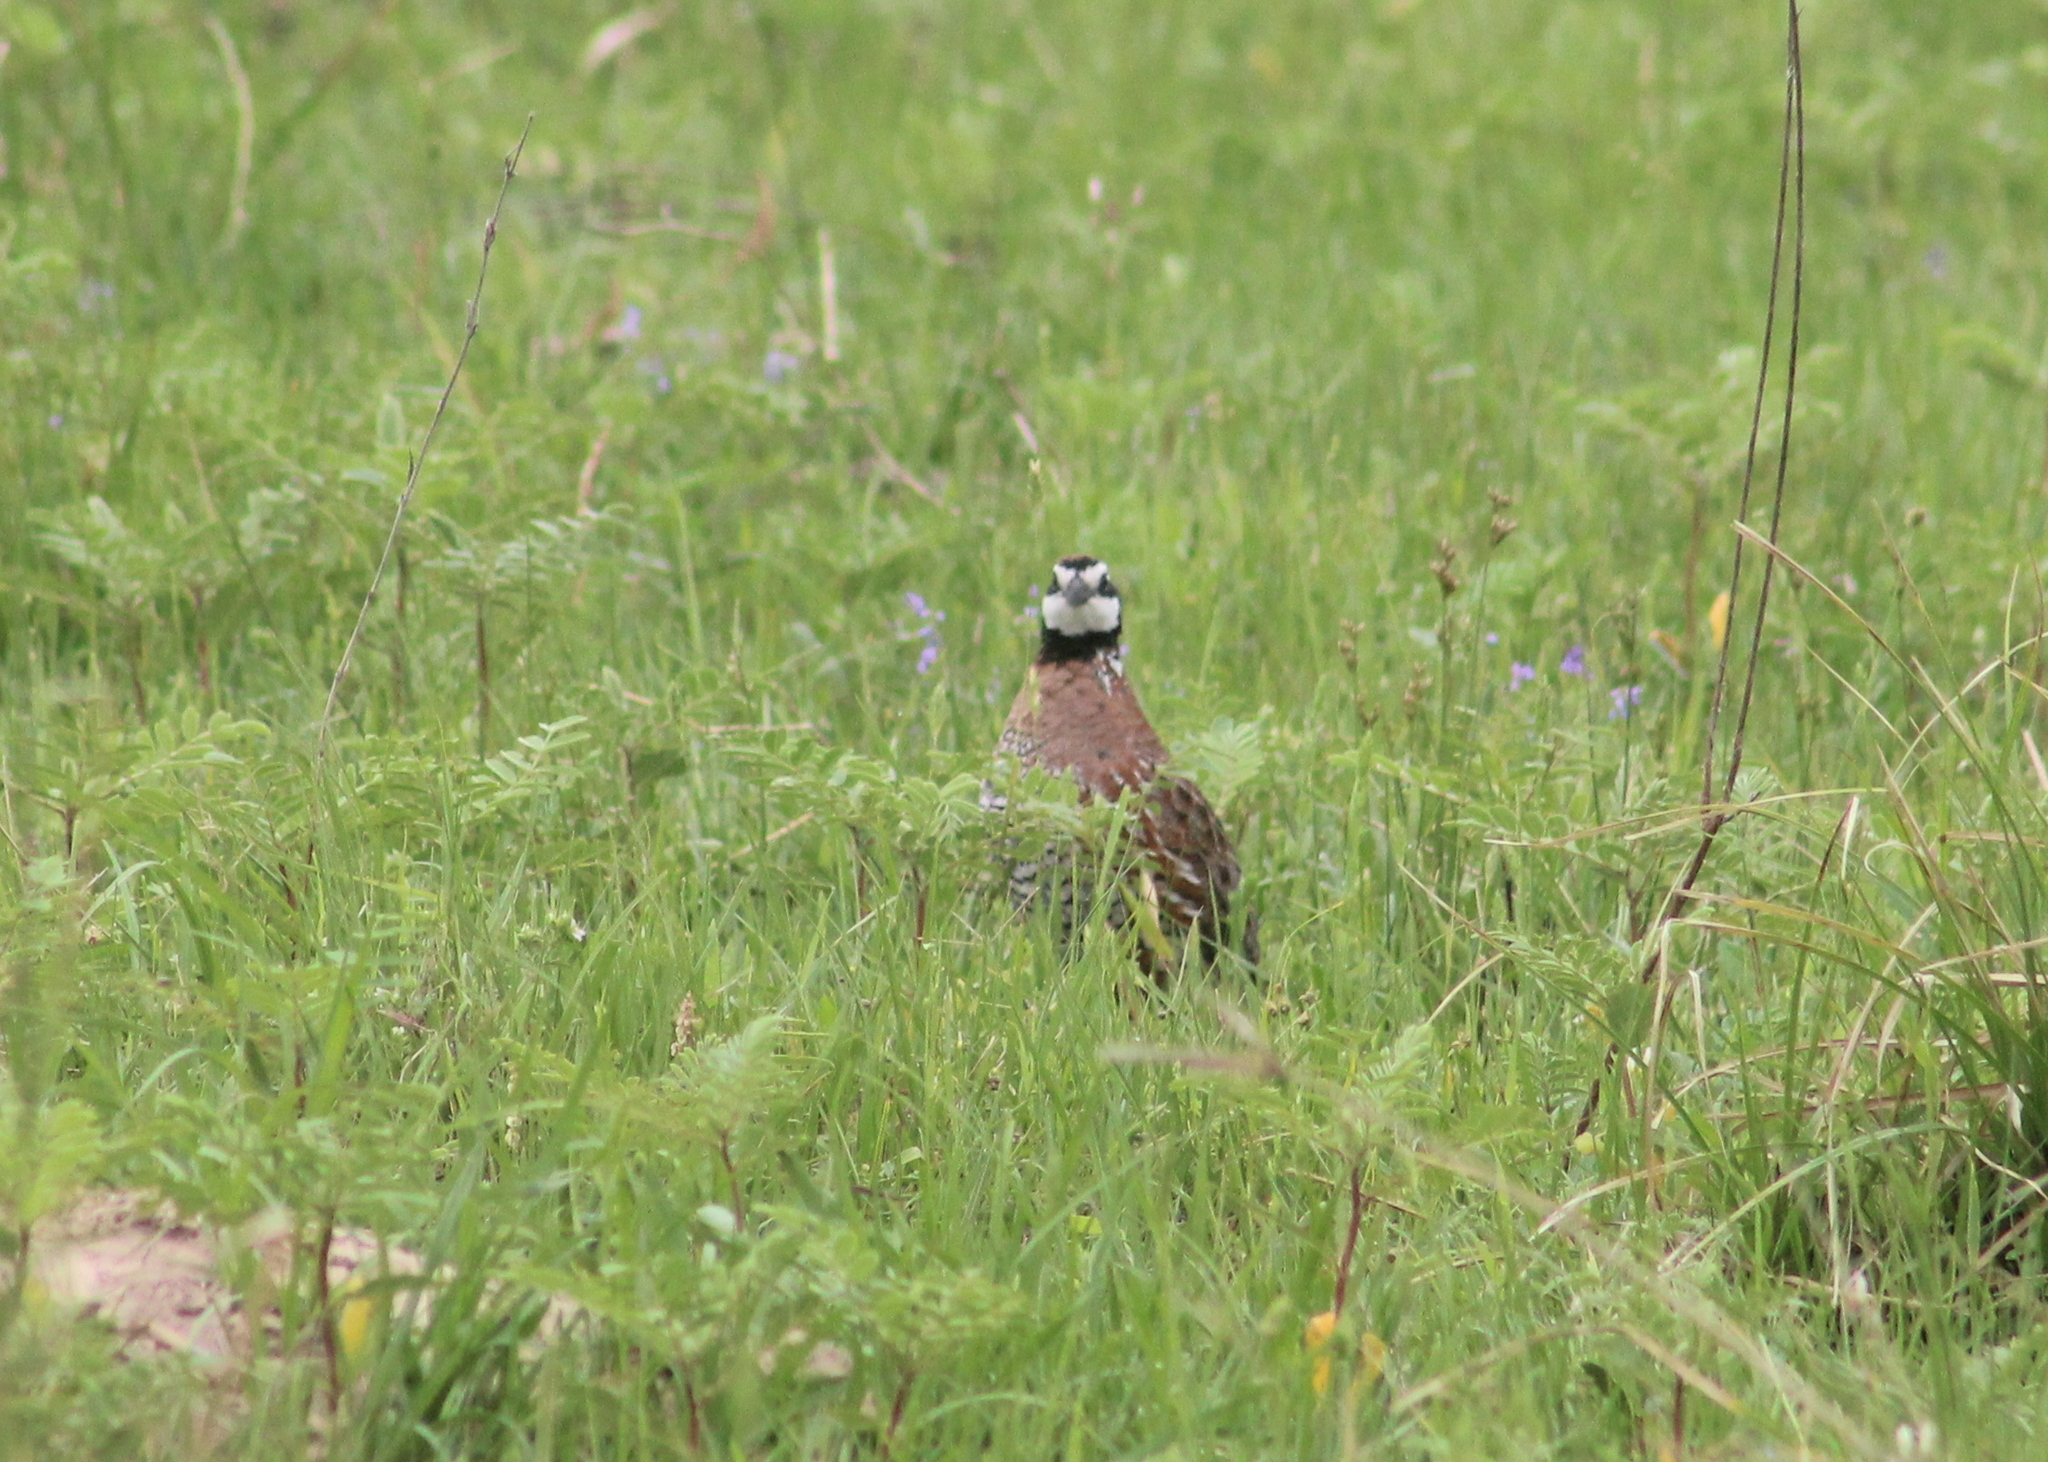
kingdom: Animalia
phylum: Chordata
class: Aves
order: Galliformes
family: Odontophoridae
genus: Colinus
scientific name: Colinus virginianus
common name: Northern bobwhite
